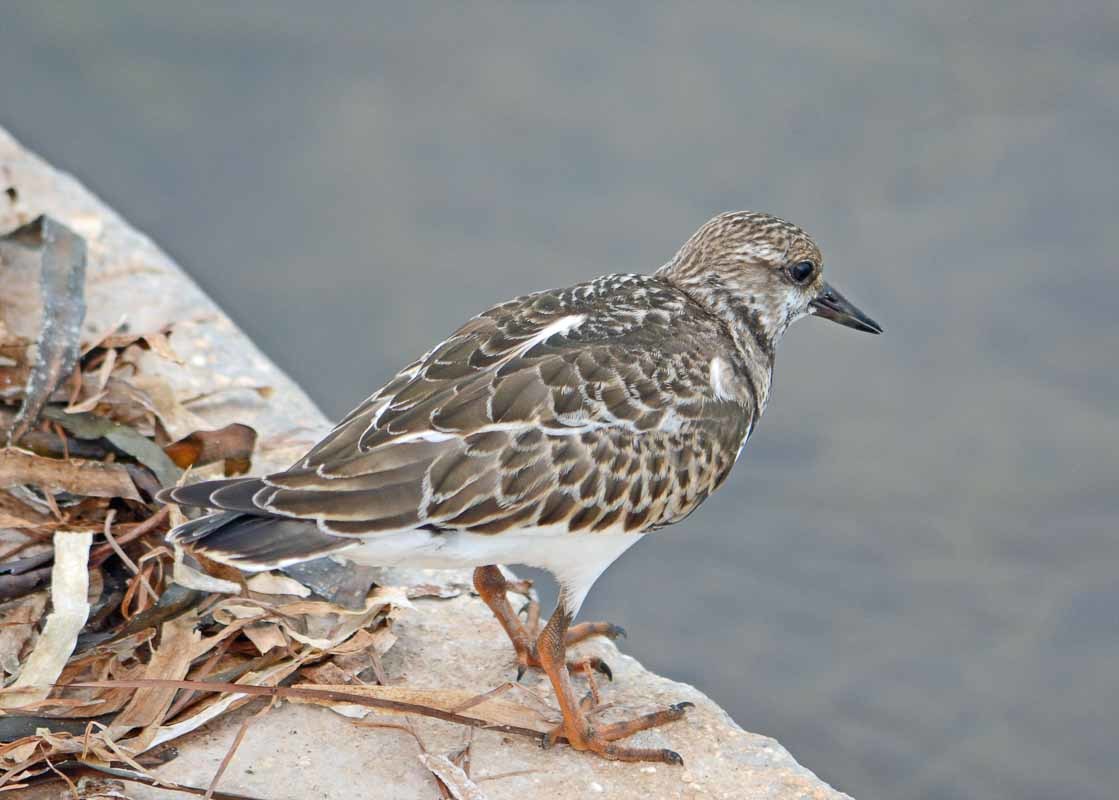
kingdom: Animalia
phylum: Chordata
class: Aves
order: Charadriiformes
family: Scolopacidae
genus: Arenaria
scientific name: Arenaria interpres
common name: Ruddy turnstone
